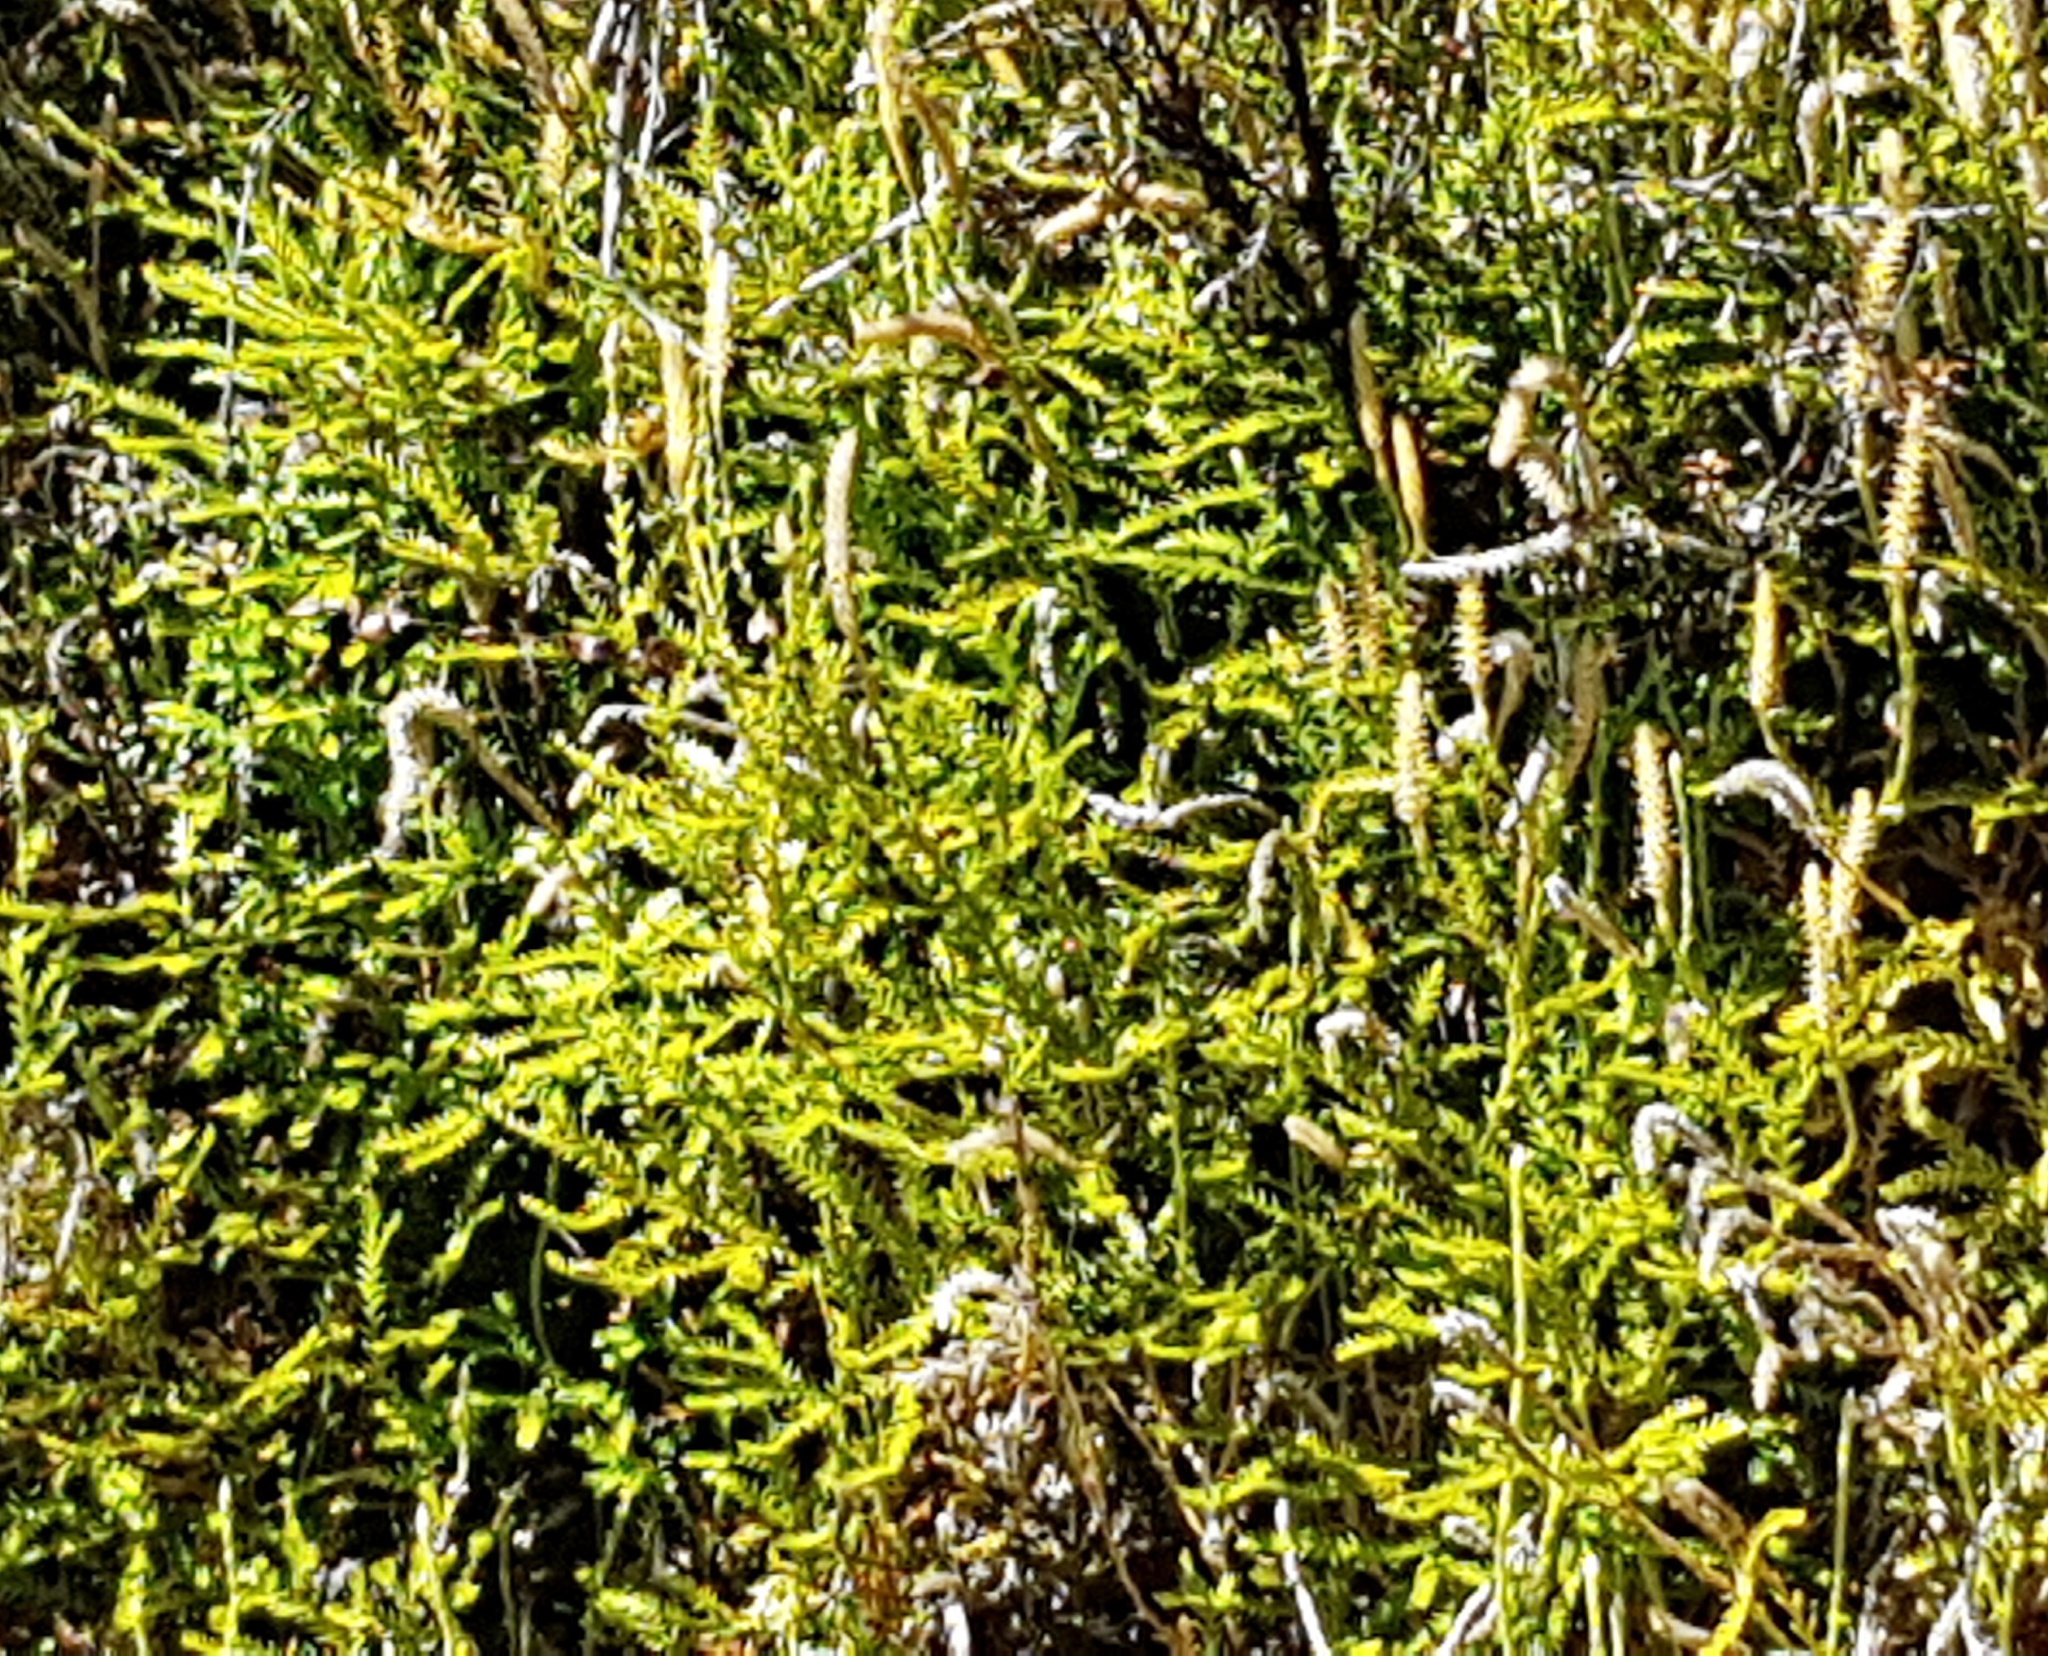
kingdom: Plantae
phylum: Tracheophyta
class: Lycopodiopsida
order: Lycopodiales
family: Lycopodiaceae
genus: Diphasium
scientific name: Diphasium scariosum
